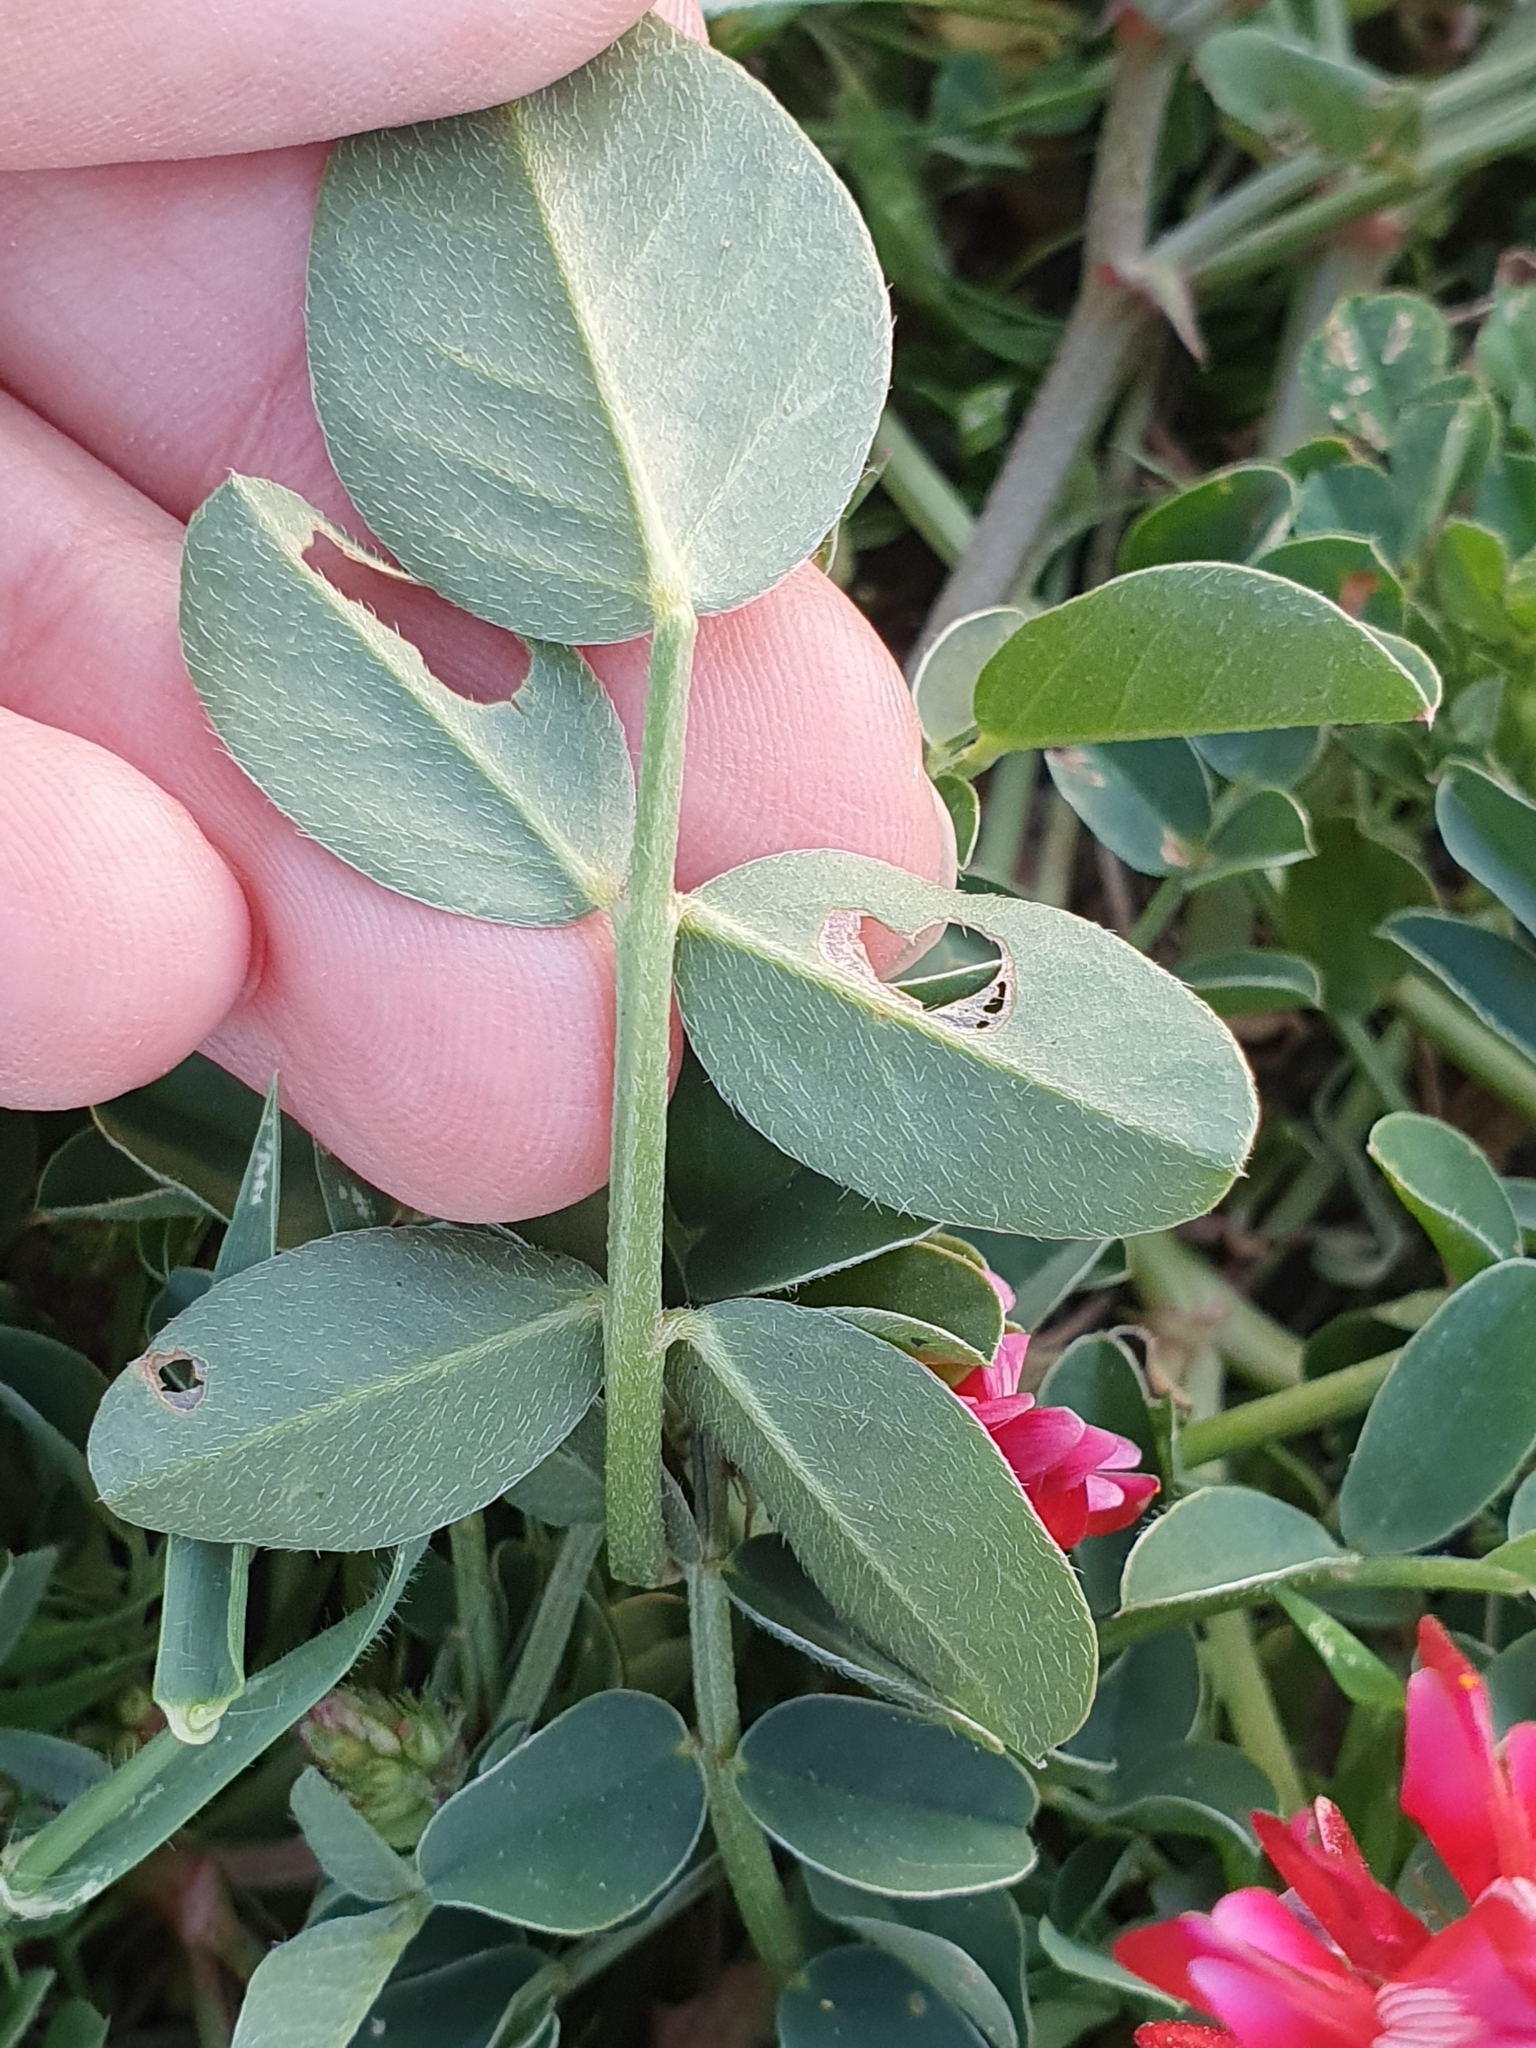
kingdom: Plantae
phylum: Tracheophyta
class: Magnoliopsida
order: Fabales
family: Fabaceae
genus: Sulla
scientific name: Sulla coronaria
